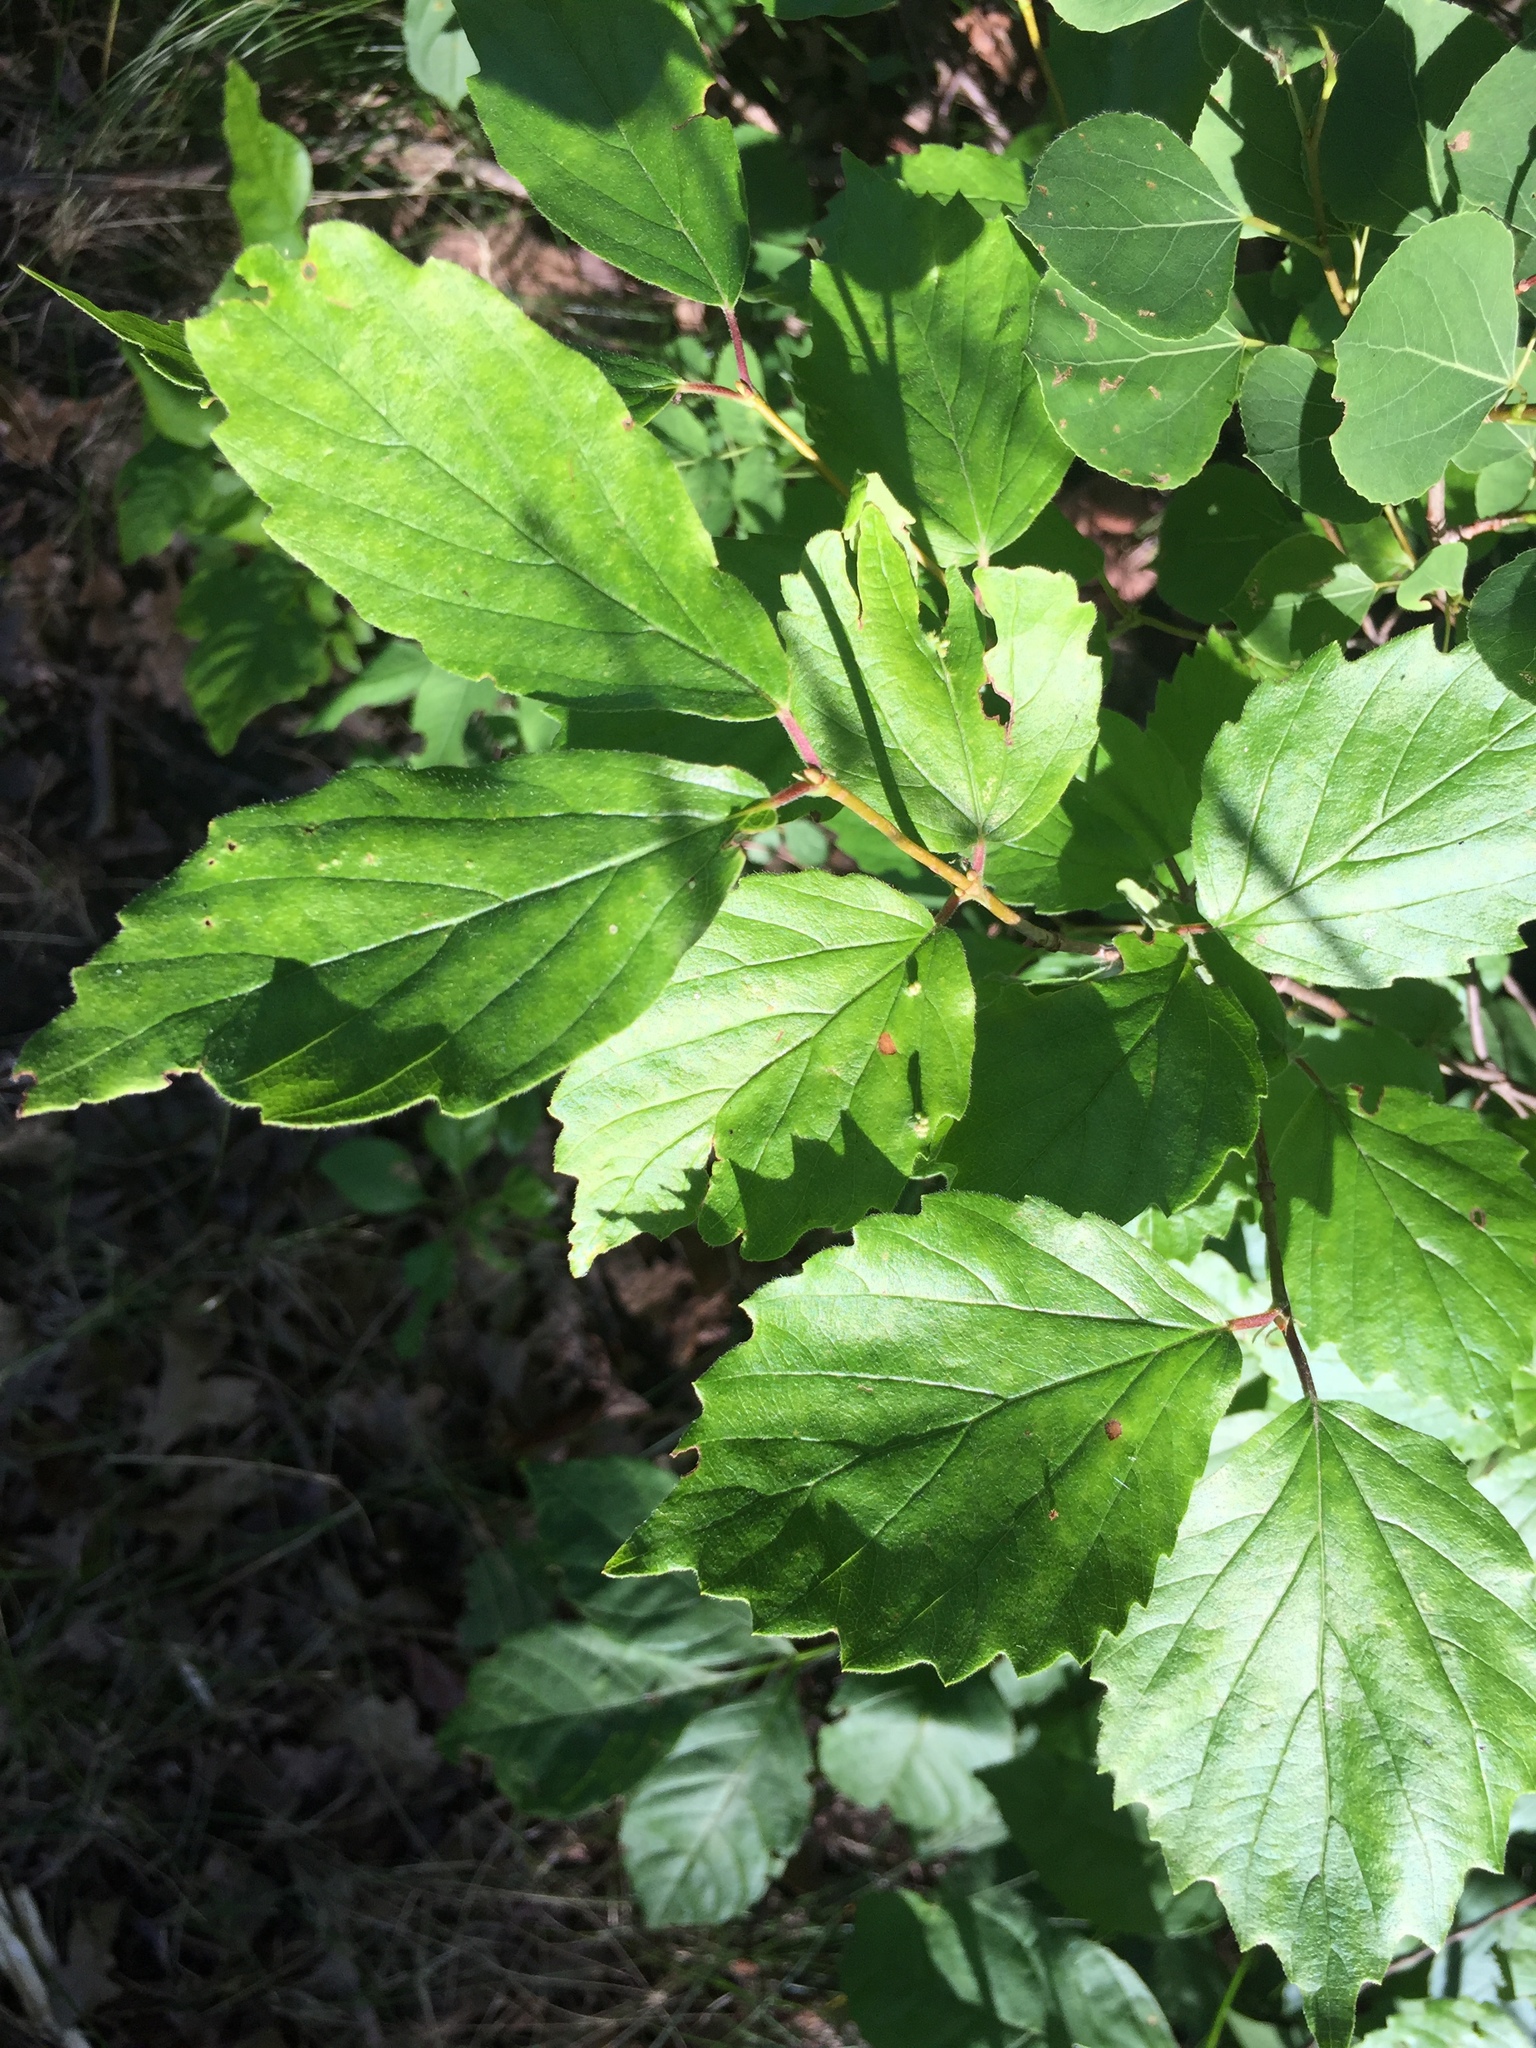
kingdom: Plantae
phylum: Tracheophyta
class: Magnoliopsida
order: Dipsacales
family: Viburnaceae
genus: Viburnum
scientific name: Viburnum rafinesqueanum
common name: Downy arrow-wood
